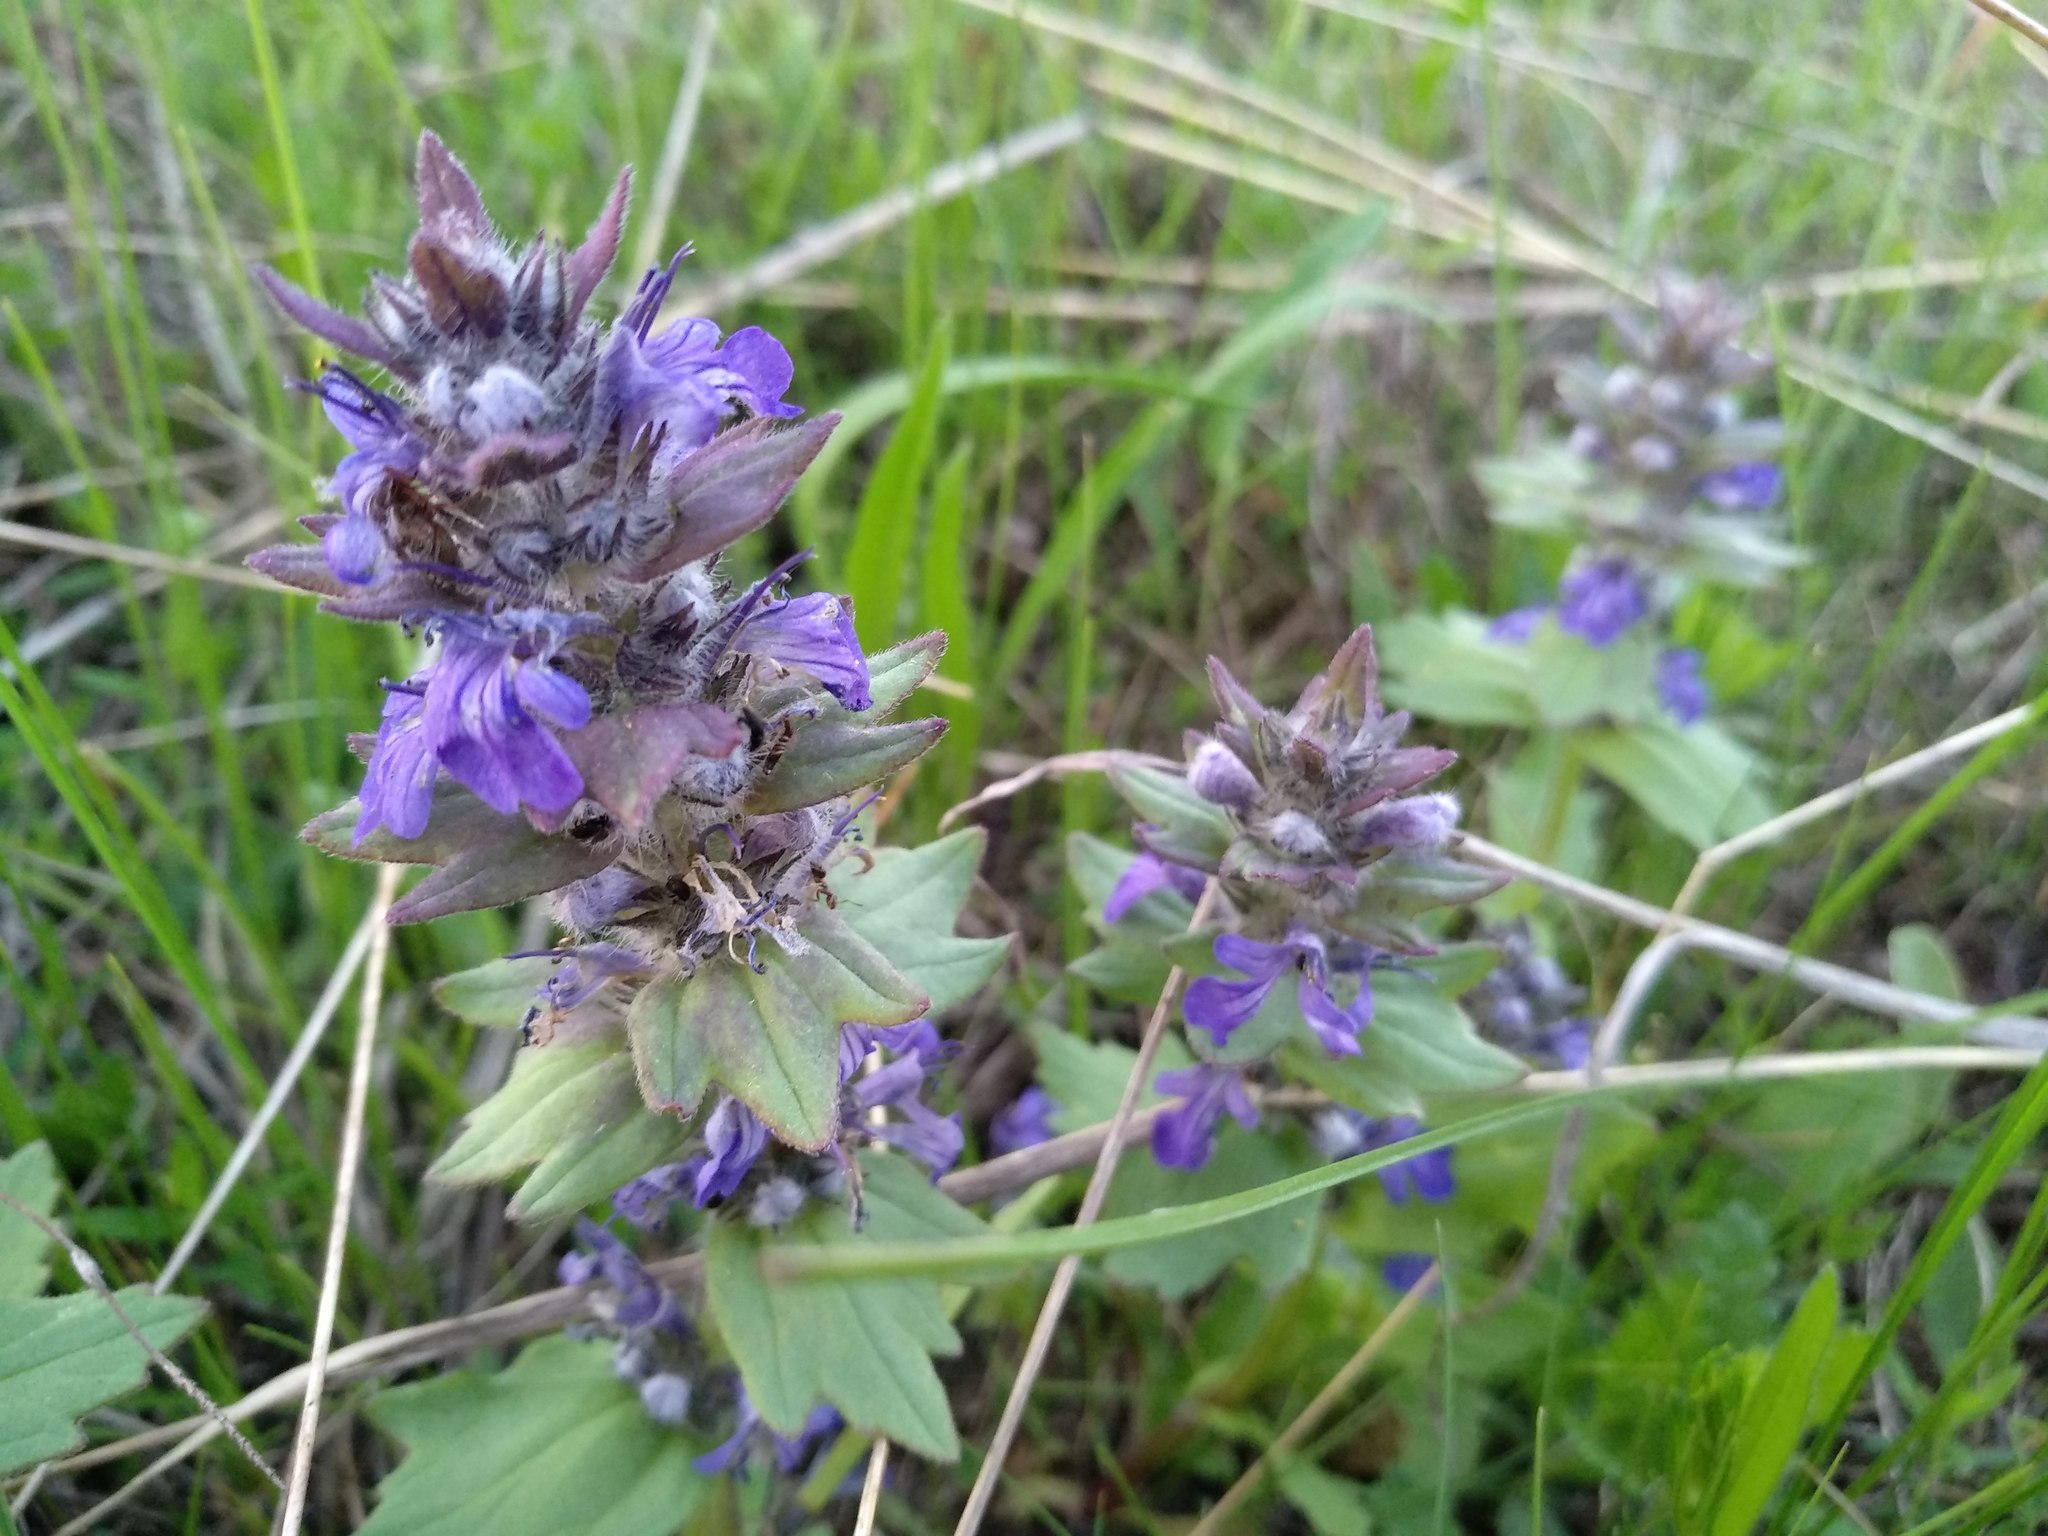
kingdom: Plantae
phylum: Tracheophyta
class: Magnoliopsida
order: Lamiales
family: Lamiaceae
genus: Ajuga
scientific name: Ajuga genevensis
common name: Blue bugle
